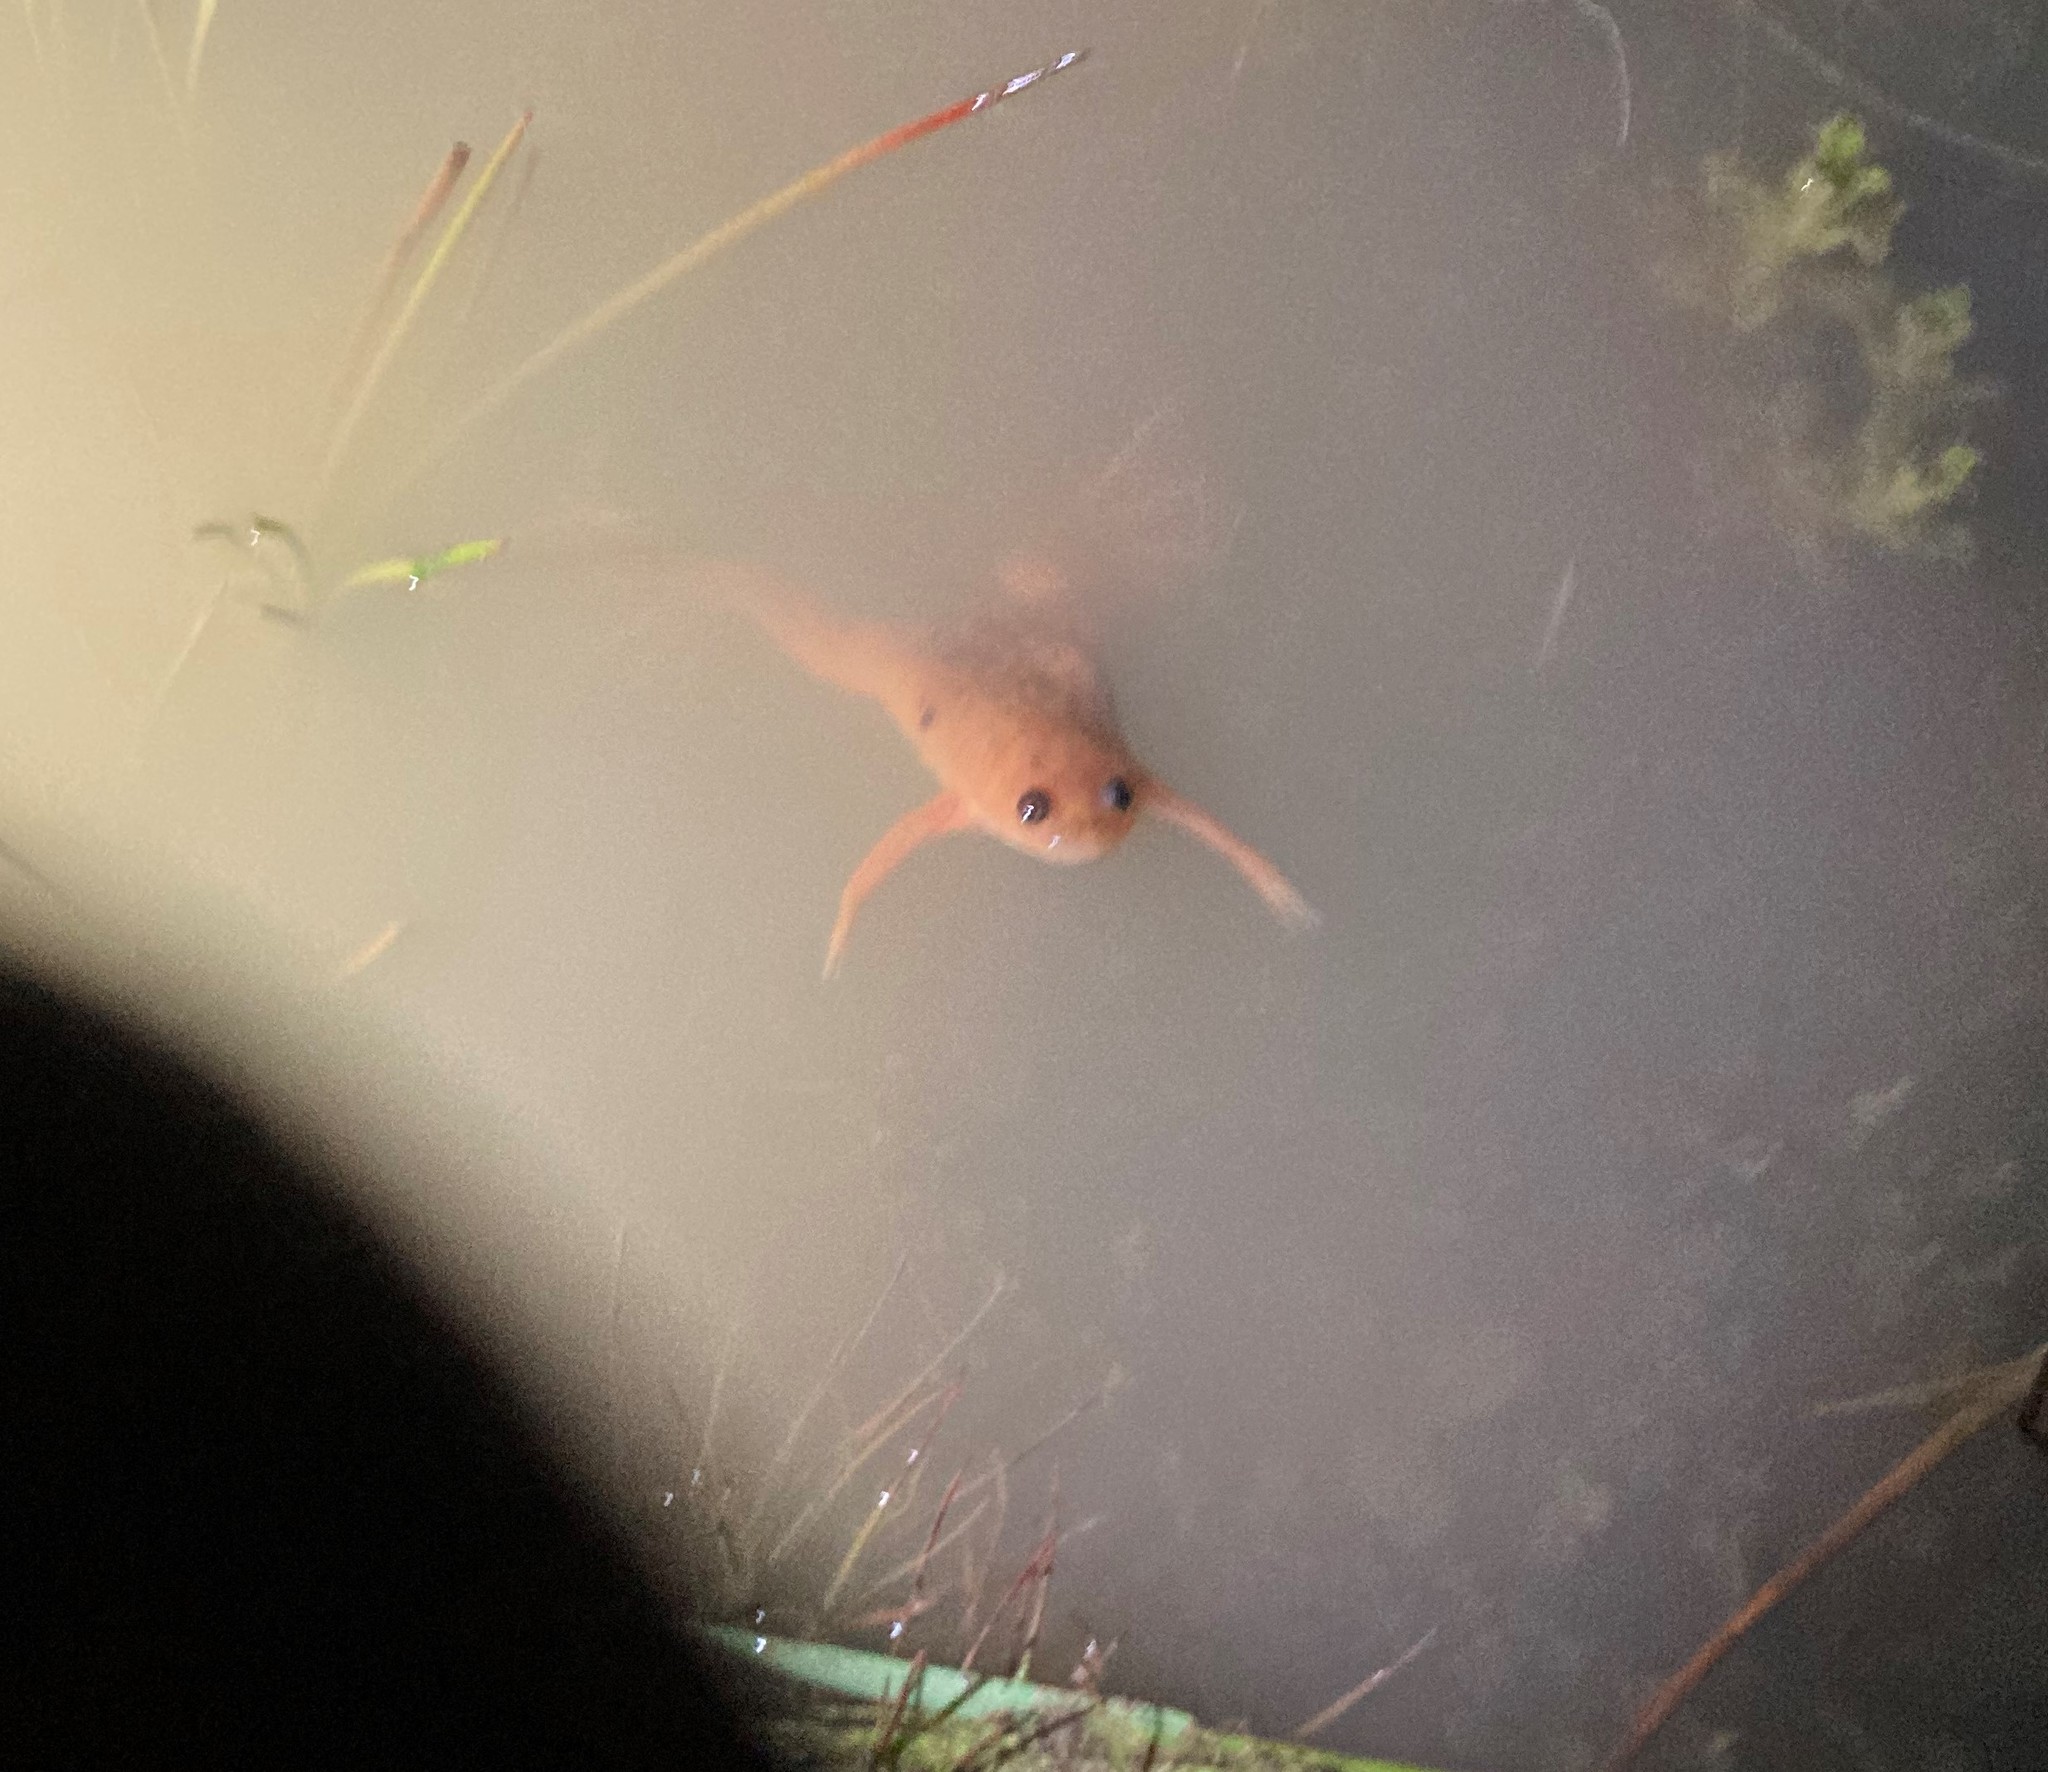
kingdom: Animalia
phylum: Chordata
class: Amphibia
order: Anura
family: Pipidae
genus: Xenopus
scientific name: Xenopus laevis
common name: African clawed frog
